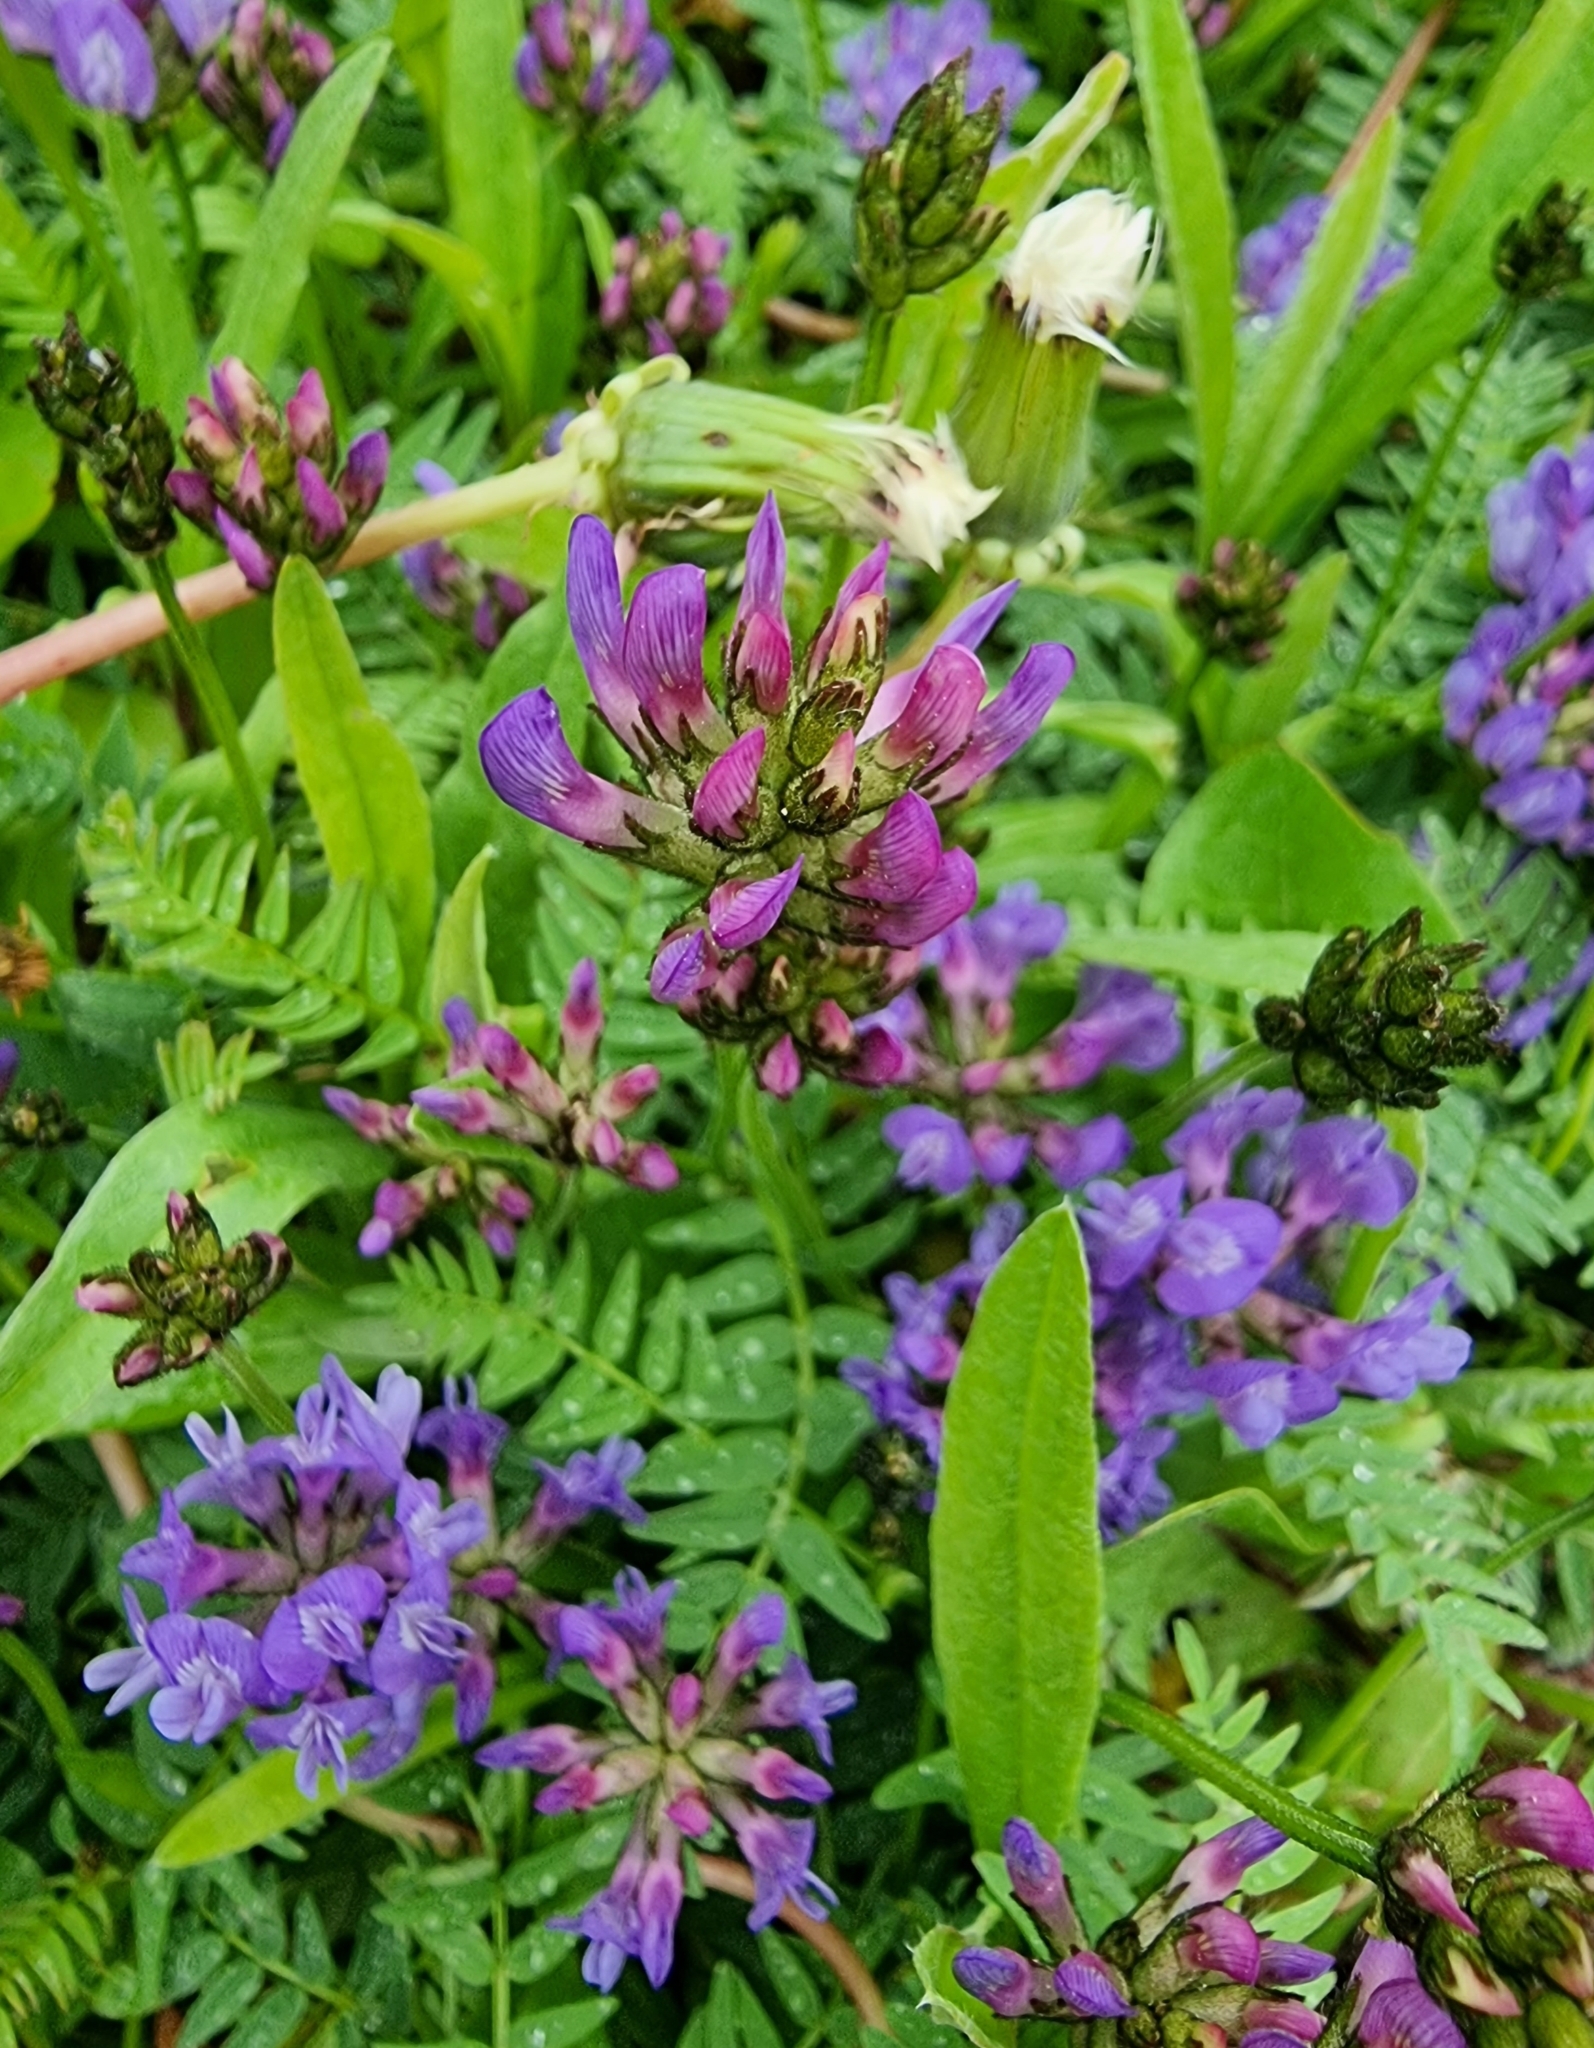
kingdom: Plantae
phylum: Tracheophyta
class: Magnoliopsida
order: Fabales
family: Fabaceae
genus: Astragalus
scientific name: Astragalus danicus
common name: Purple milk-vetch
